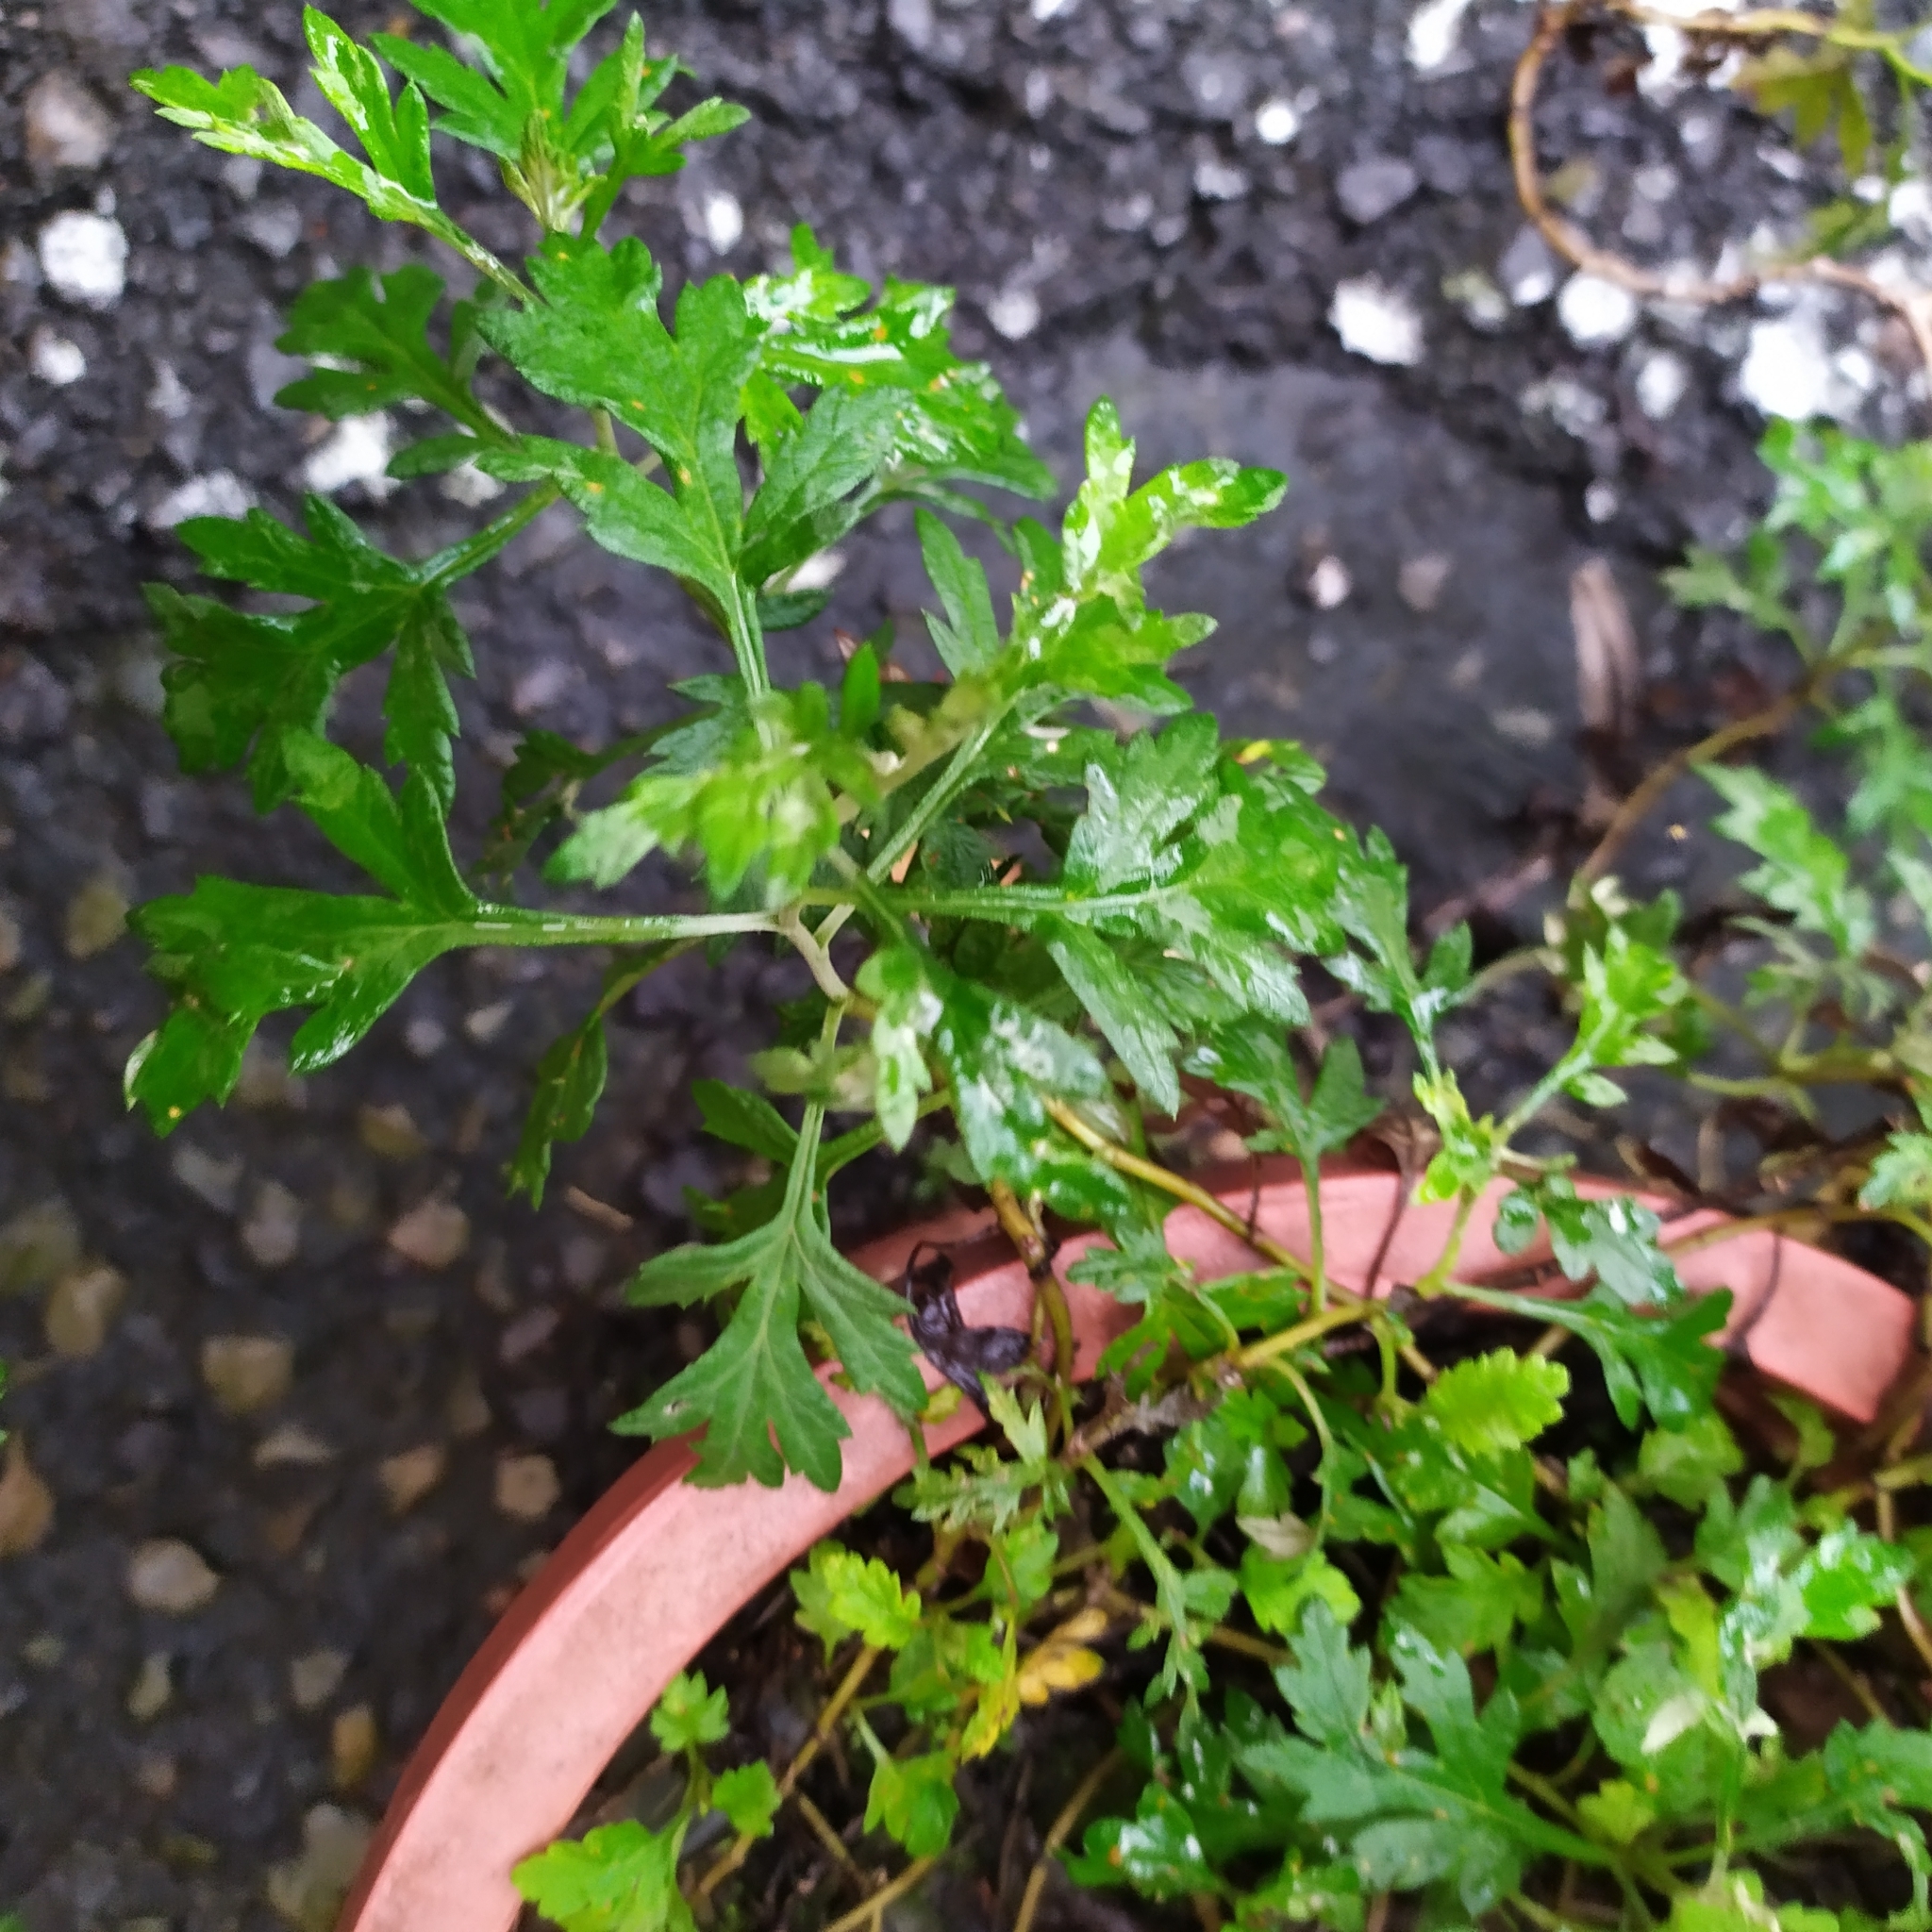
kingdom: Plantae
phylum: Tracheophyta
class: Magnoliopsida
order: Asterales
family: Asteraceae
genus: Artemisia
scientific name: Artemisia argyi
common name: Chinese mugwort
